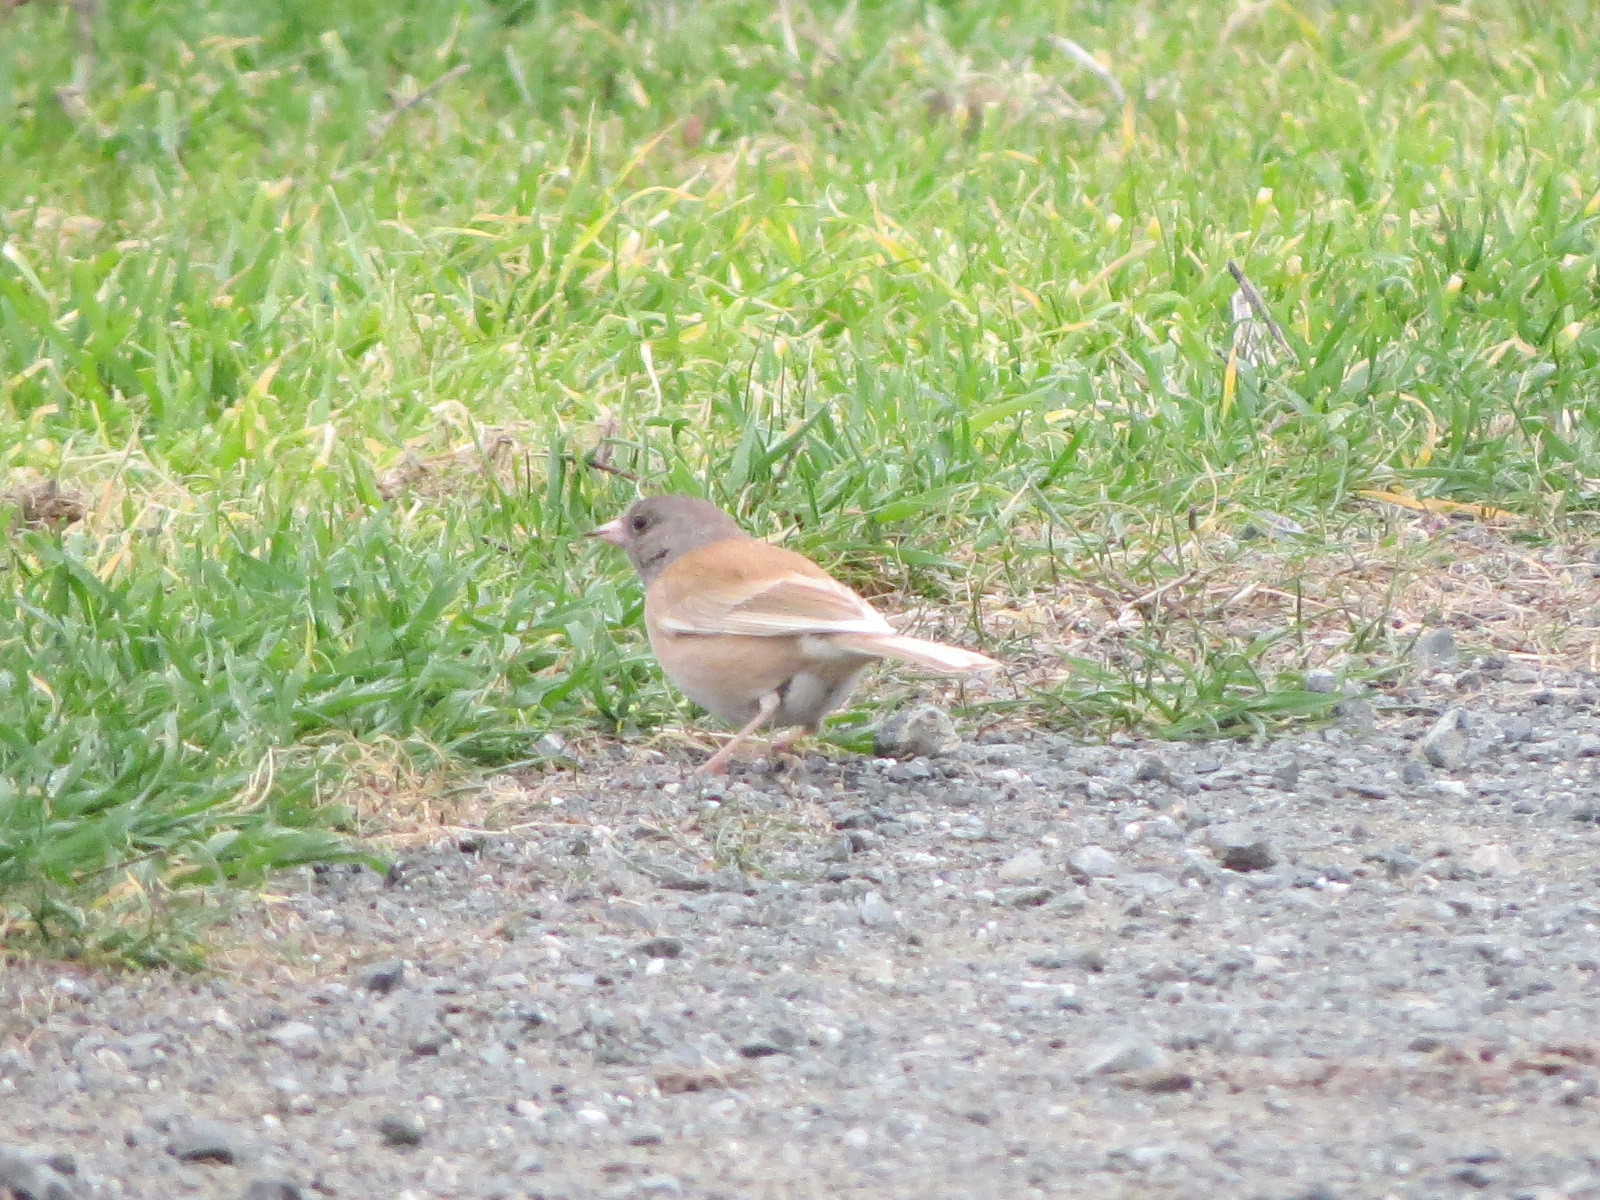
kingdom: Animalia
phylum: Chordata
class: Aves
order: Passeriformes
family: Passerellidae
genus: Junco
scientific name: Junco hyemalis
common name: Dark-eyed junco
